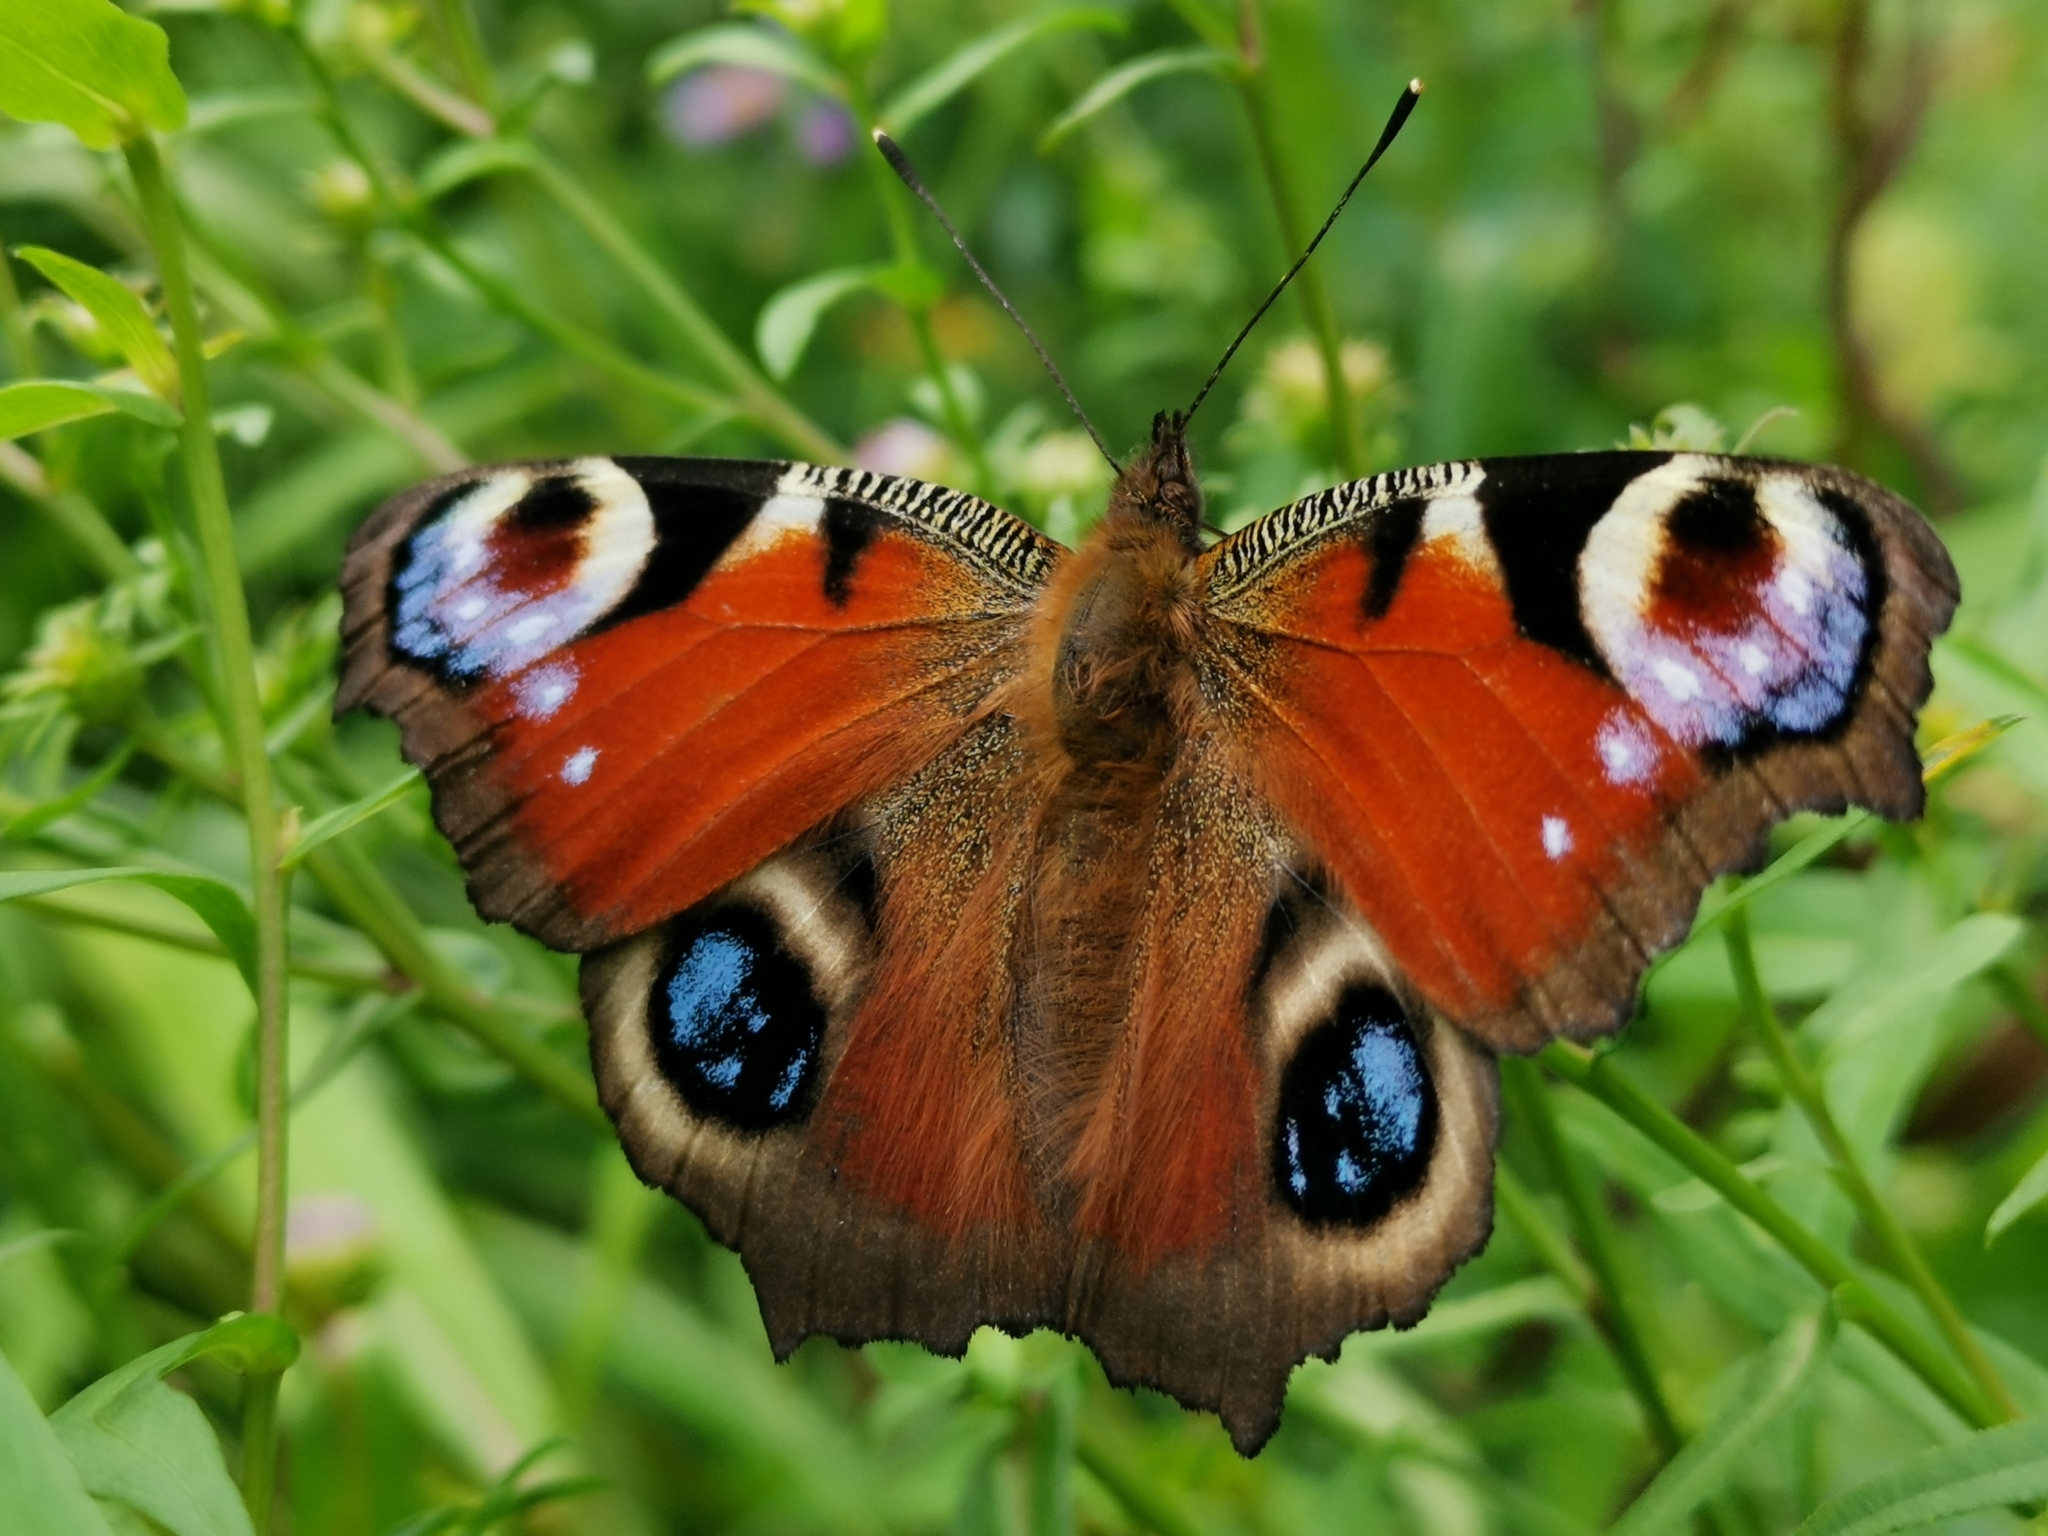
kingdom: Animalia
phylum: Arthropoda
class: Insecta
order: Lepidoptera
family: Nymphalidae
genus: Aglais
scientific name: Aglais io
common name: Peacock
